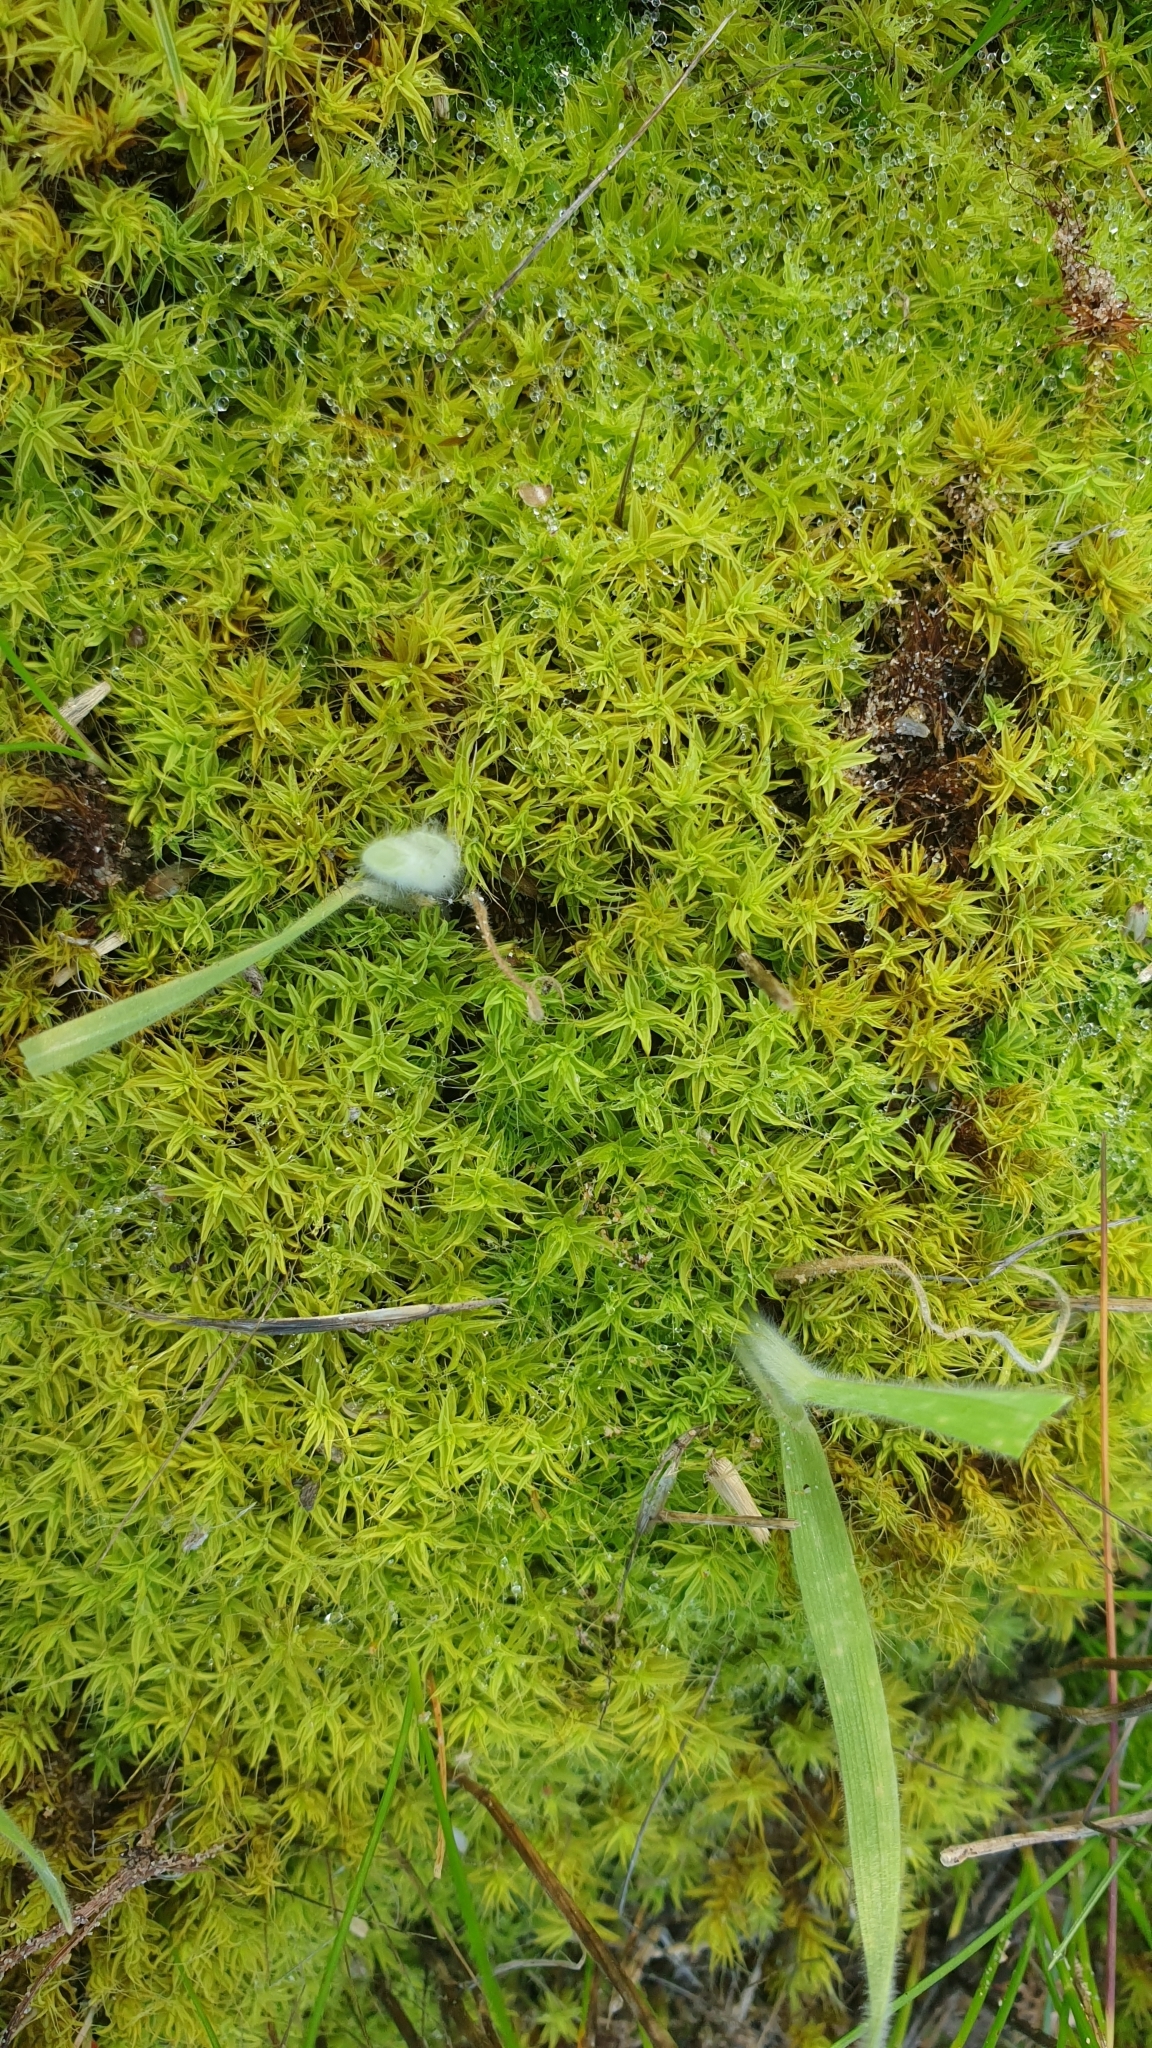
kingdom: Plantae
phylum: Bryophyta
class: Bryopsida
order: Pottiales
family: Pottiaceae
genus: Pseudocrossidium
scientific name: Pseudocrossidium crinitum
